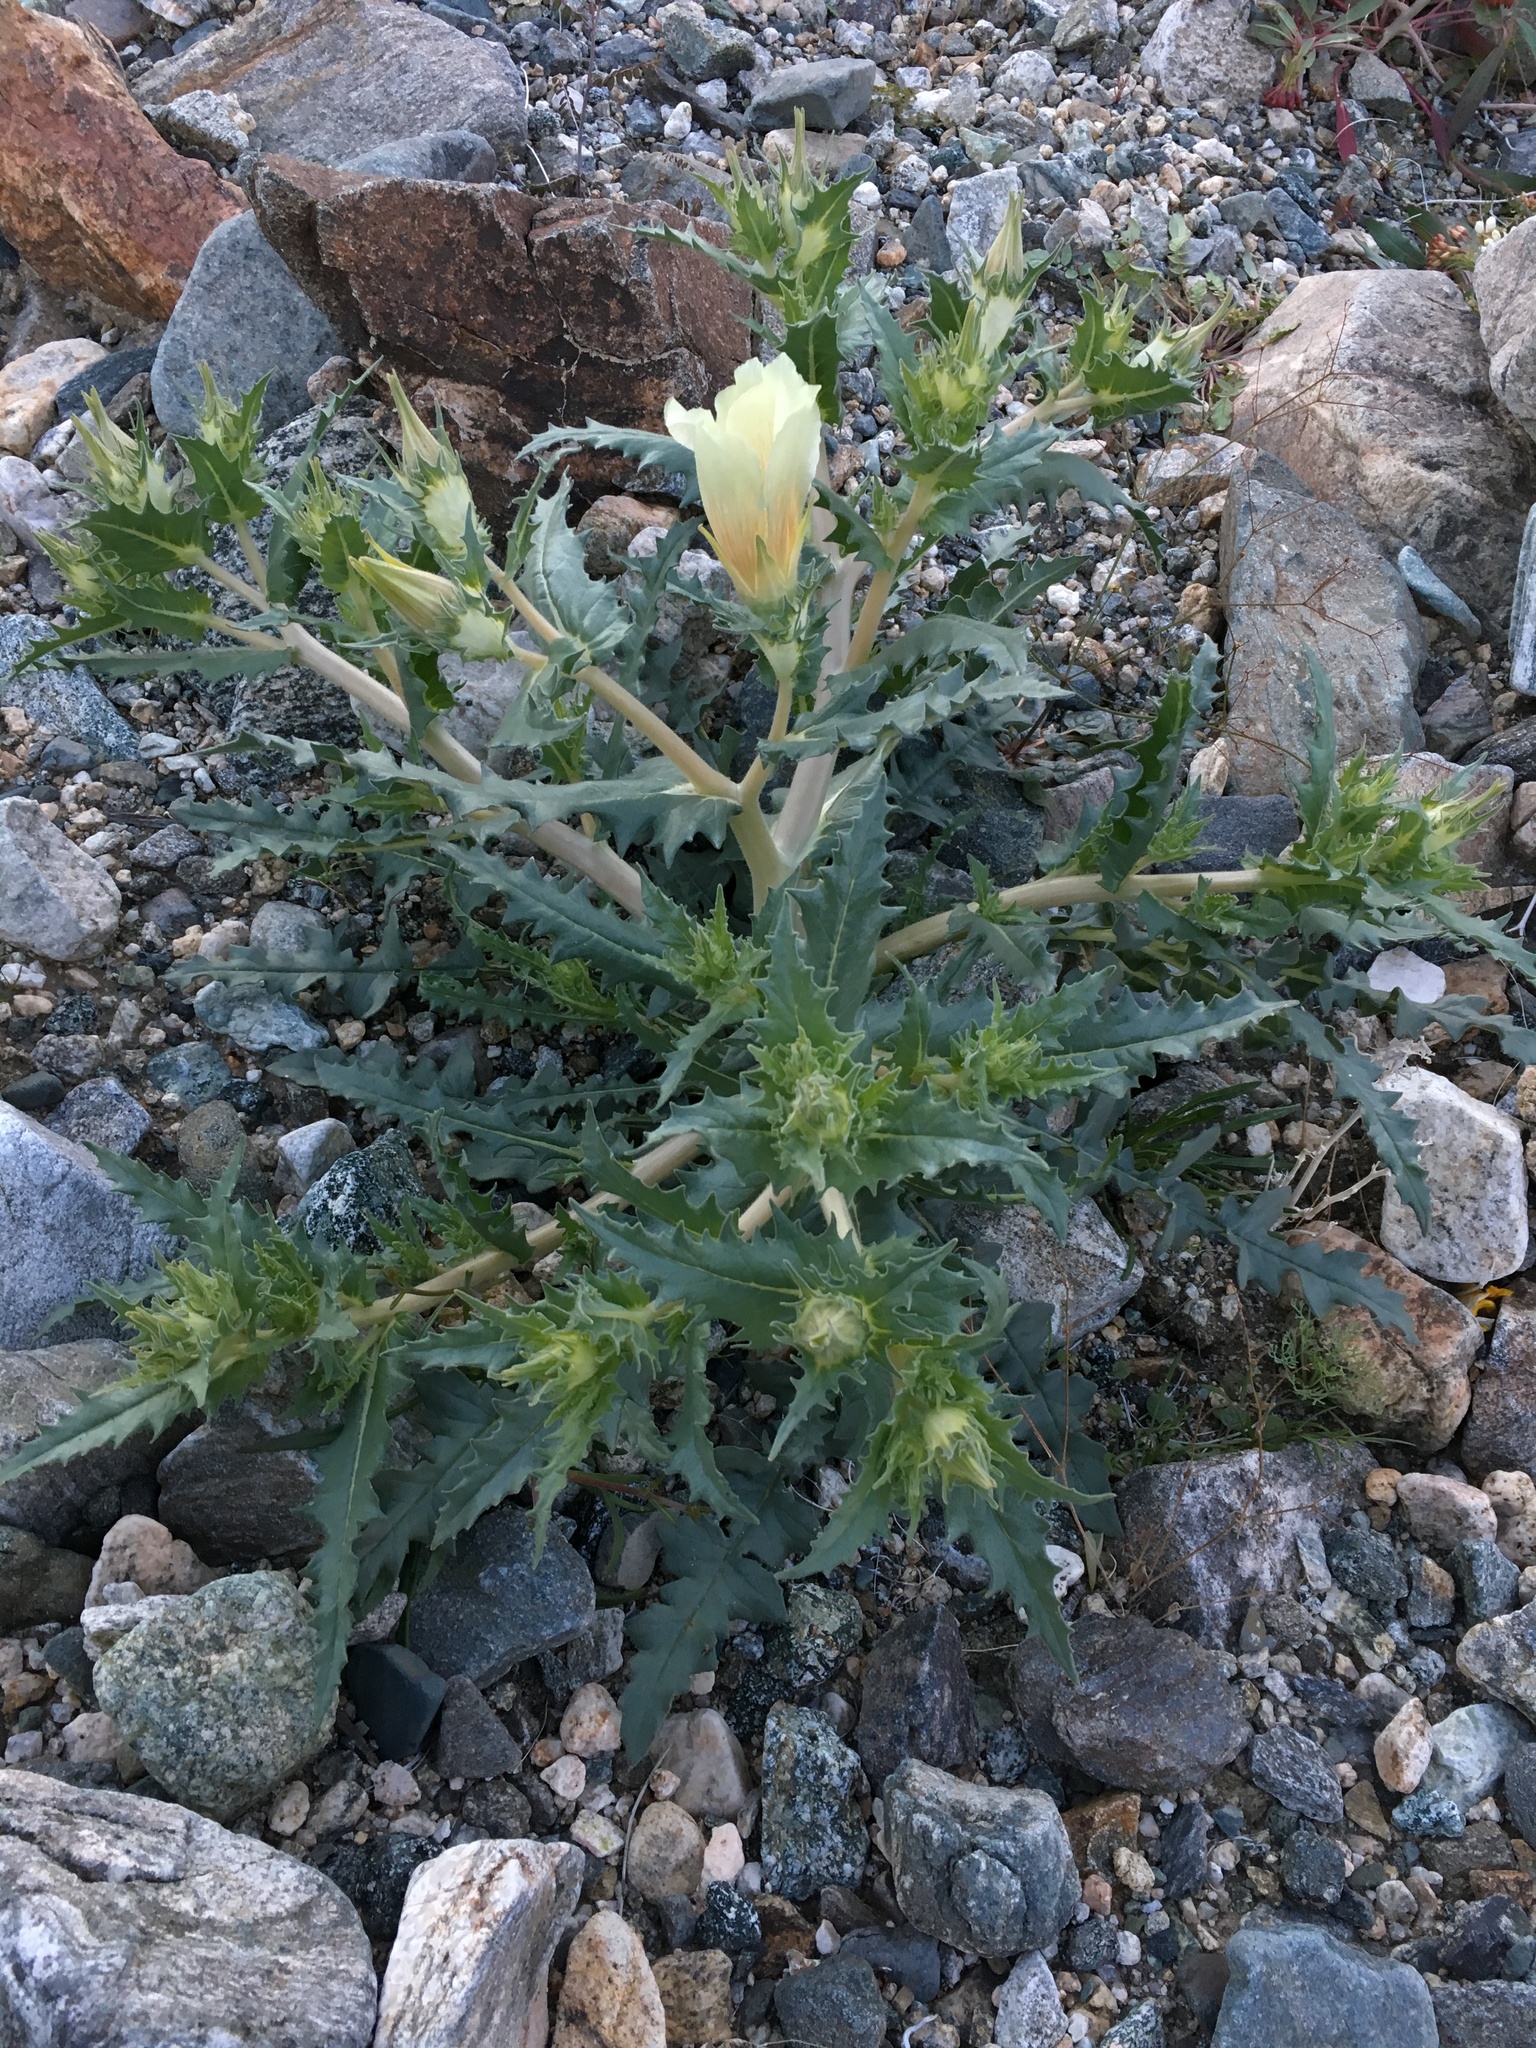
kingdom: Plantae
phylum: Tracheophyta
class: Magnoliopsida
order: Cornales
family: Loasaceae
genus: Mentzelia
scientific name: Mentzelia involucrata
